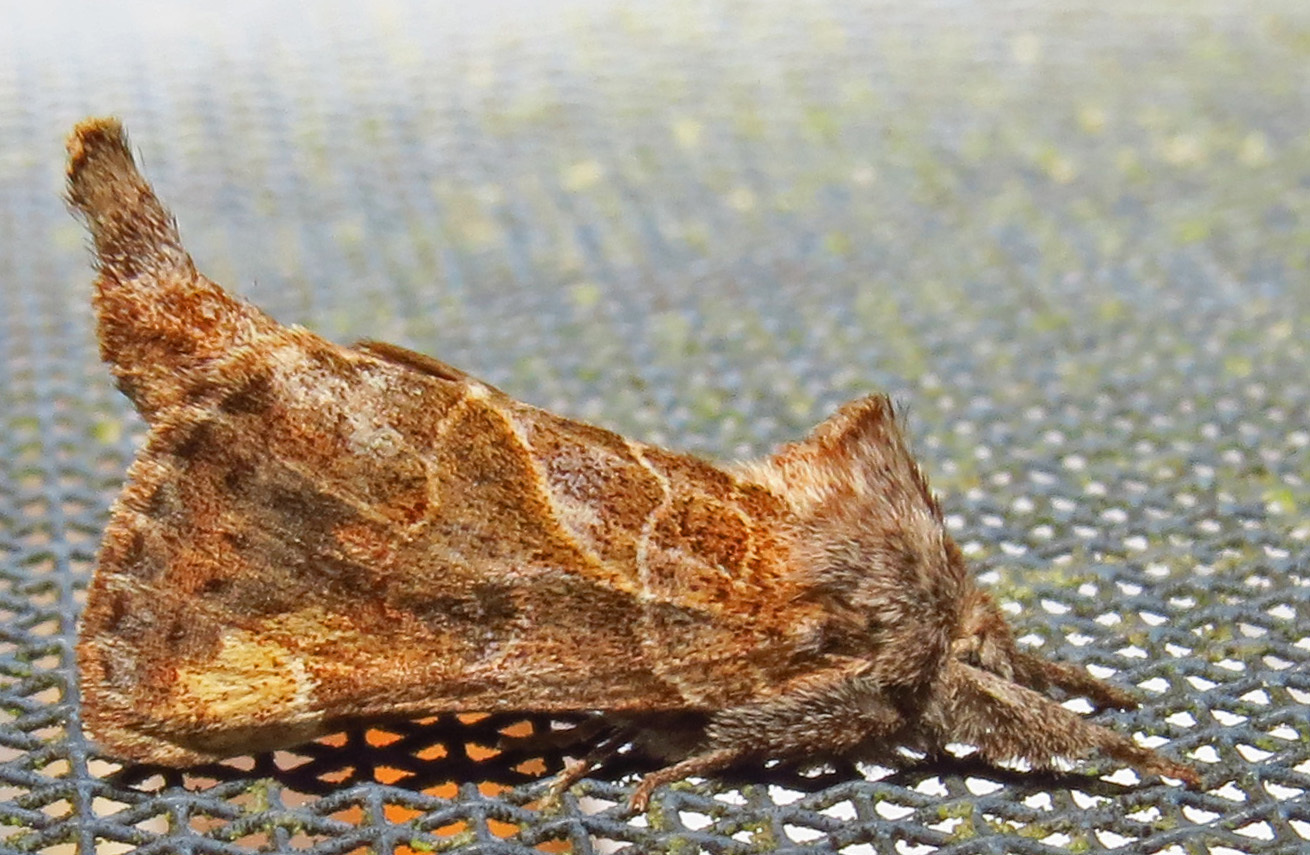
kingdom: Animalia
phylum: Arthropoda
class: Insecta
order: Lepidoptera
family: Notodontidae
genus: Clostera
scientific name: Clostera strigosa
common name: Striped chocolate-tip moth
